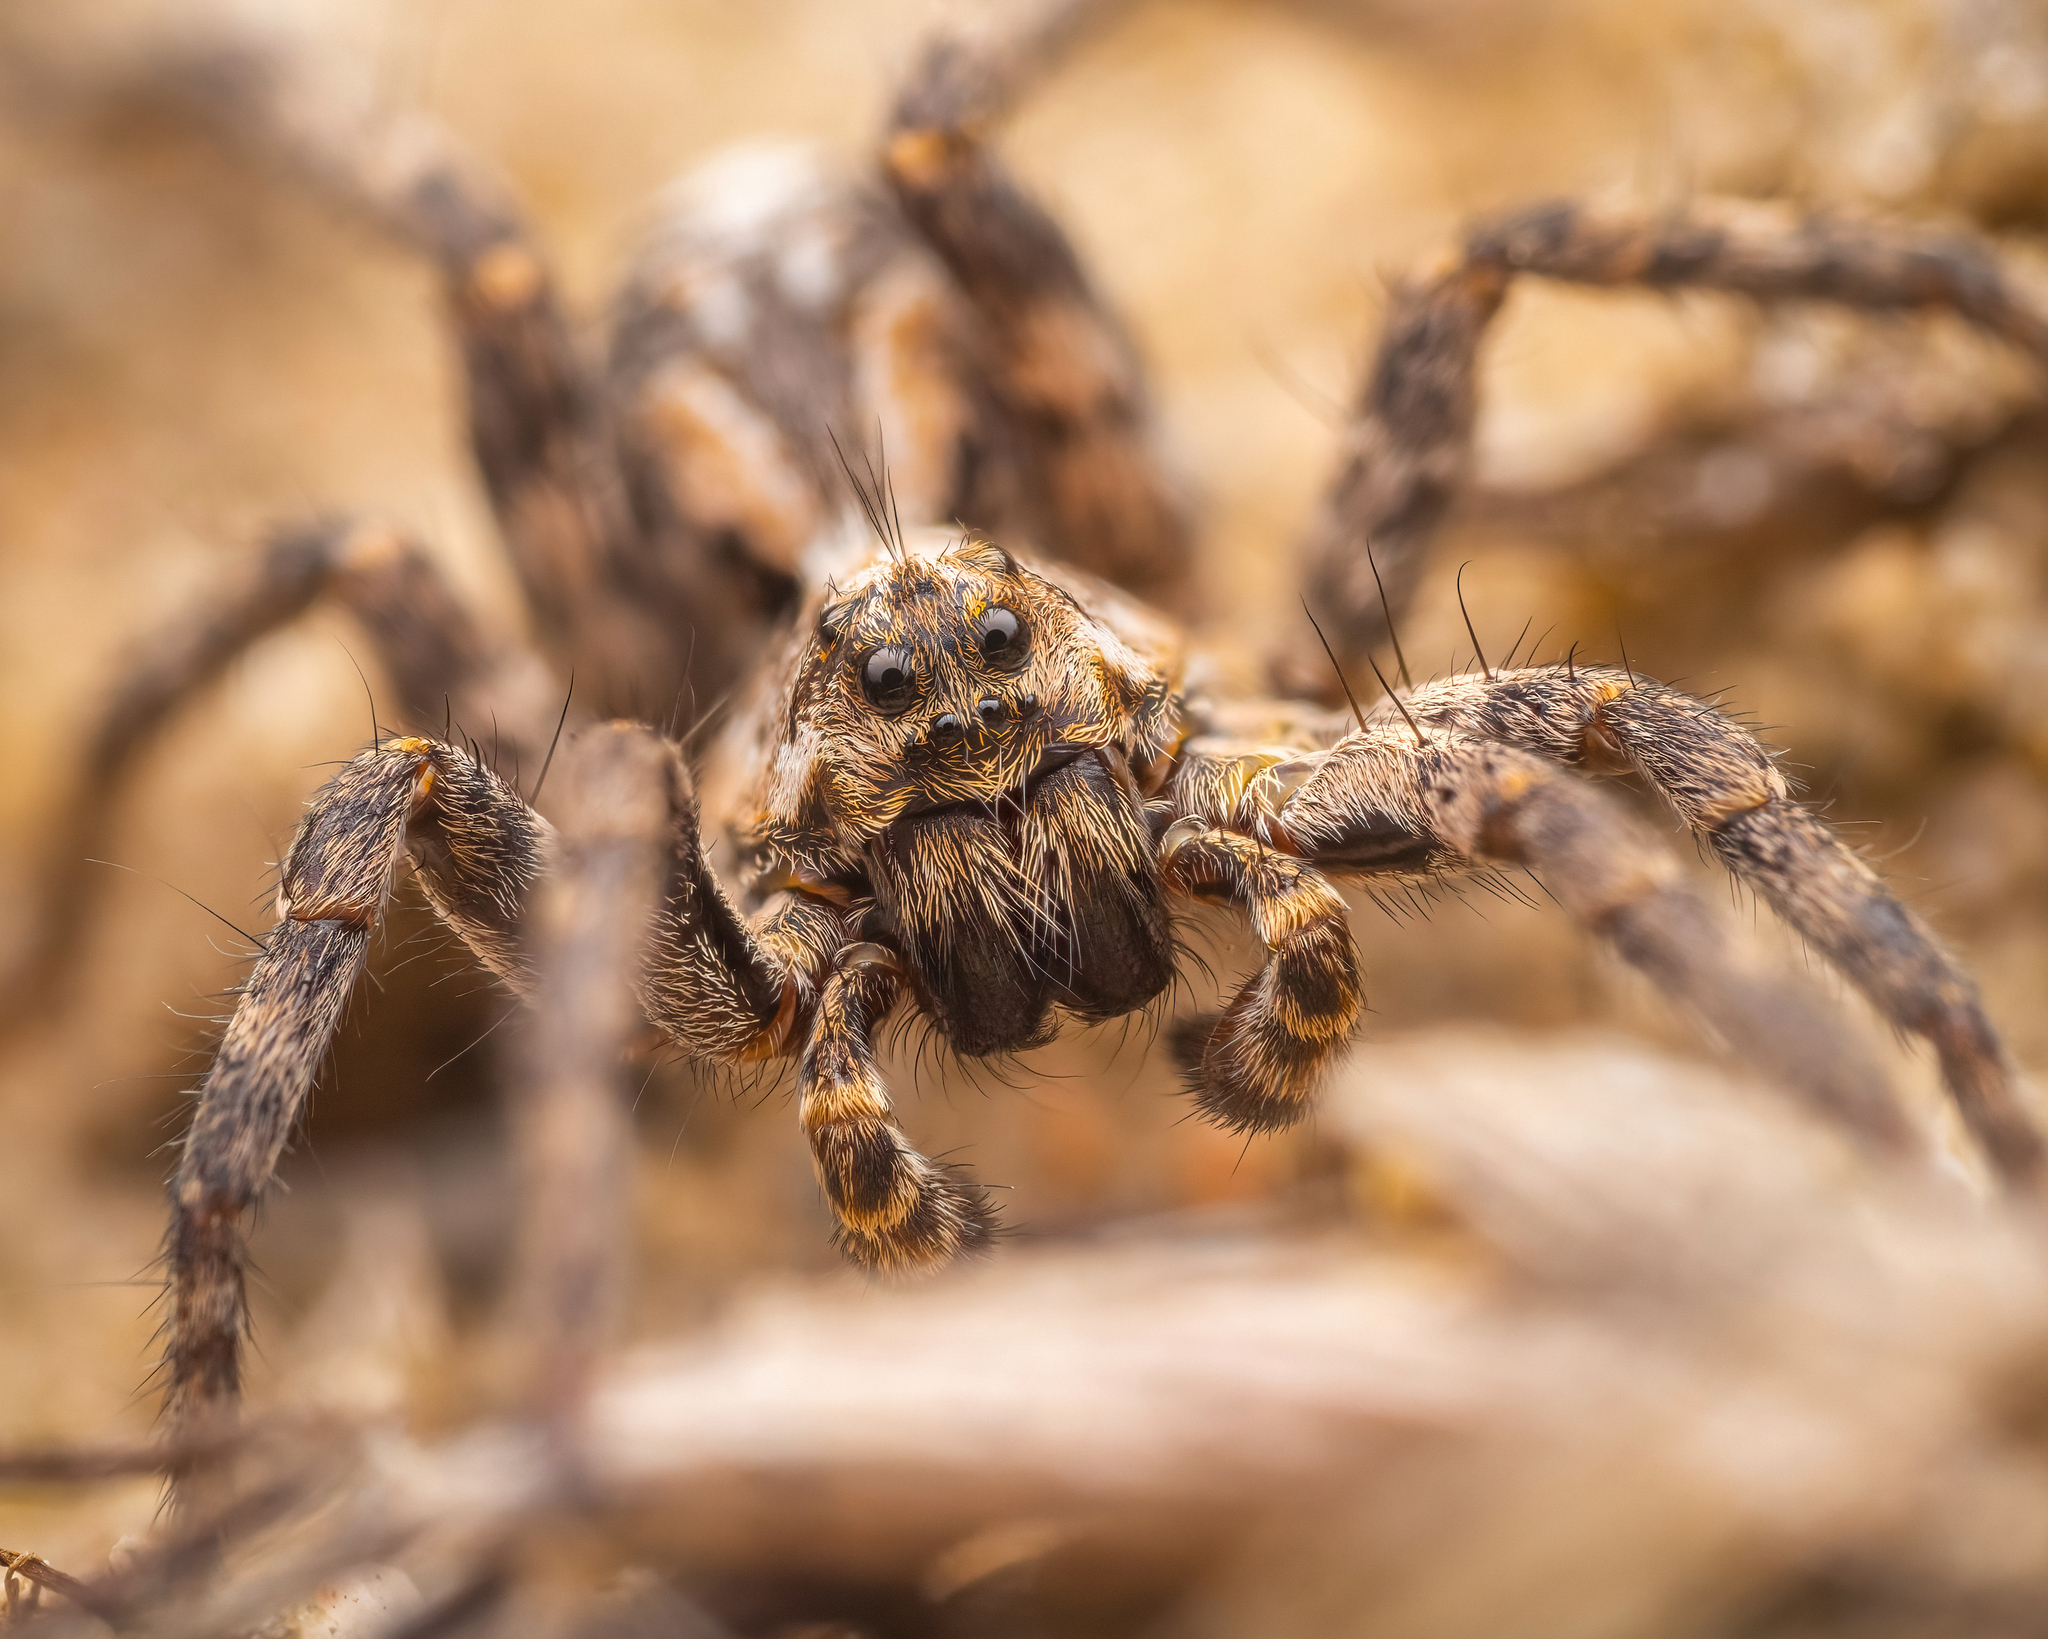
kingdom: Animalia
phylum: Arthropoda
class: Arachnida
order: Araneae
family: Lycosidae
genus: Alopecosa
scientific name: Alopecosa cursor
